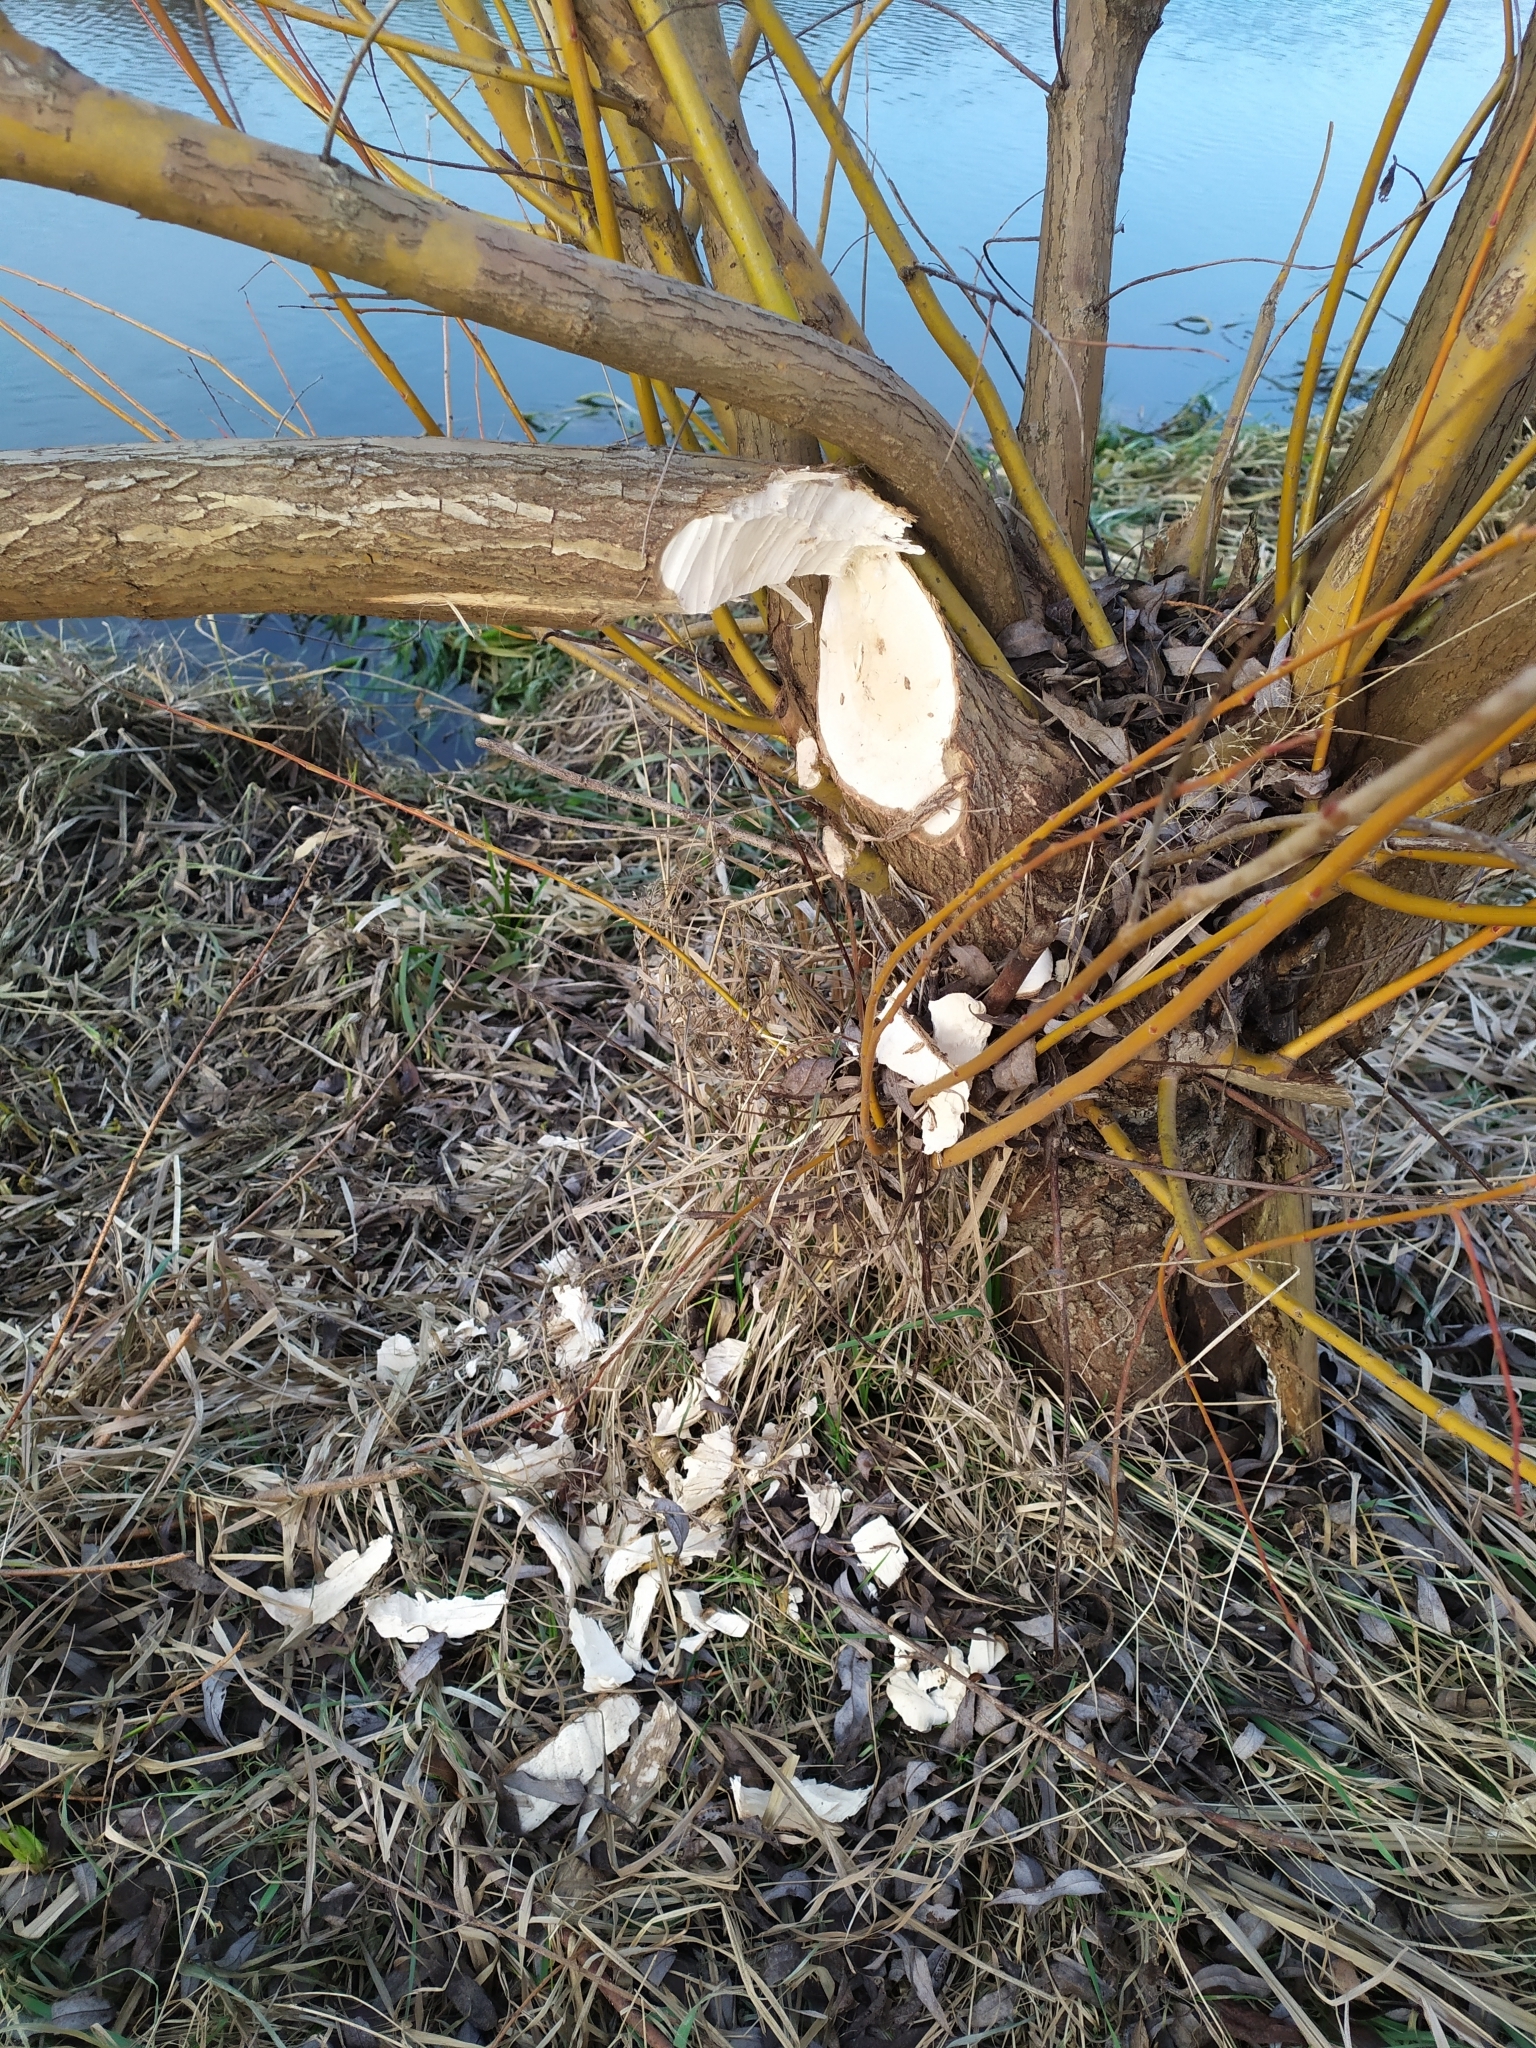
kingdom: Animalia
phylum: Chordata
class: Mammalia
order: Rodentia
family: Castoridae
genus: Castor
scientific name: Castor fiber
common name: Eurasian beaver
